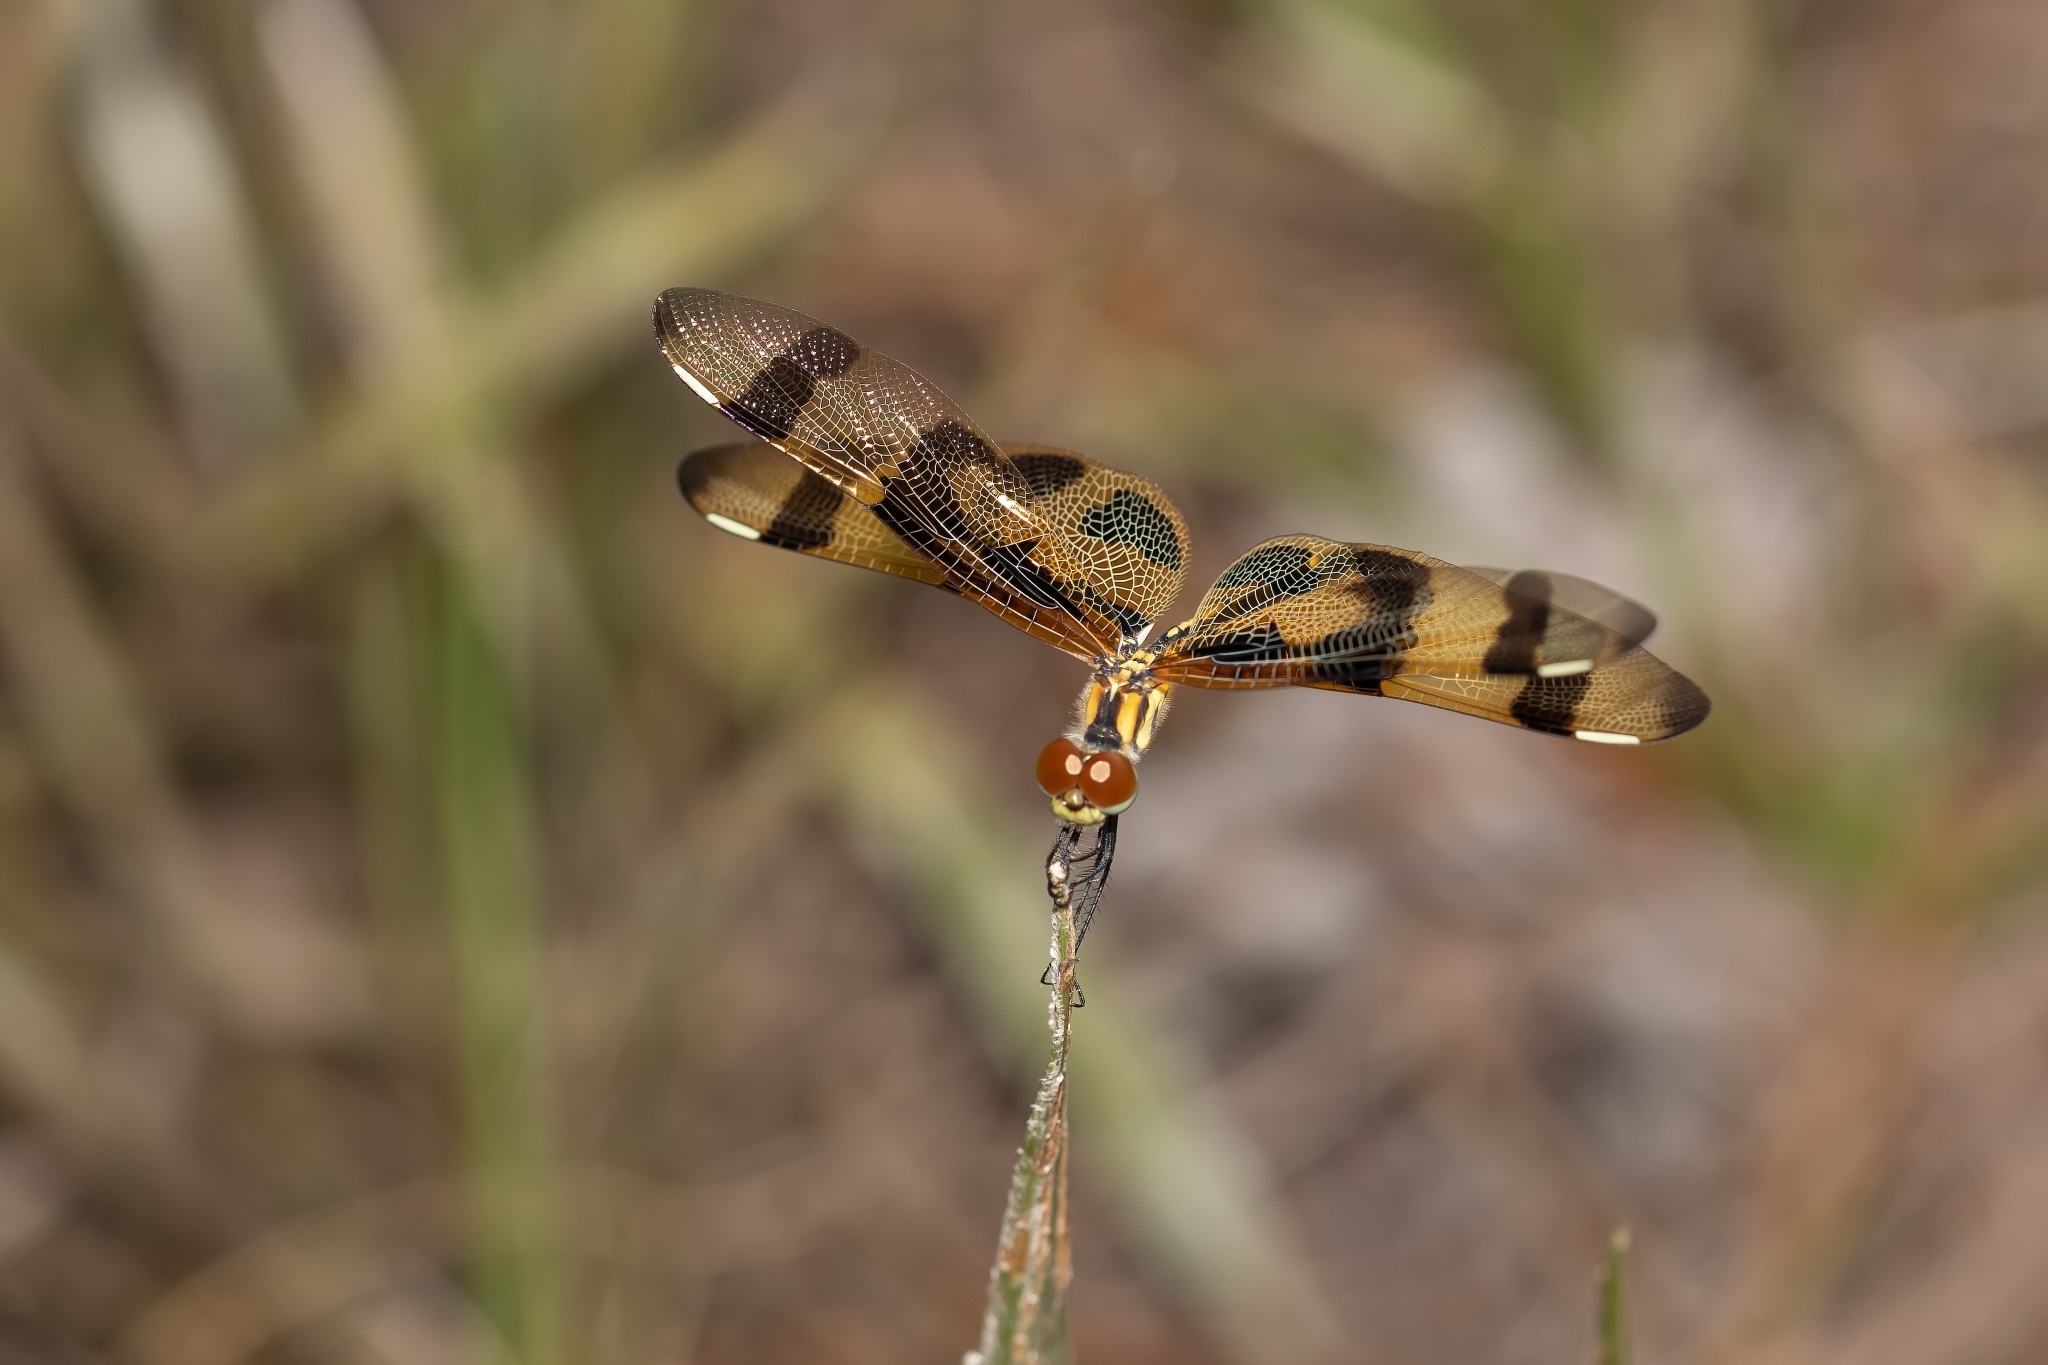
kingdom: Animalia
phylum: Arthropoda
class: Insecta
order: Odonata
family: Libellulidae
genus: Celithemis
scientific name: Celithemis eponina
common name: Halloween pennant
